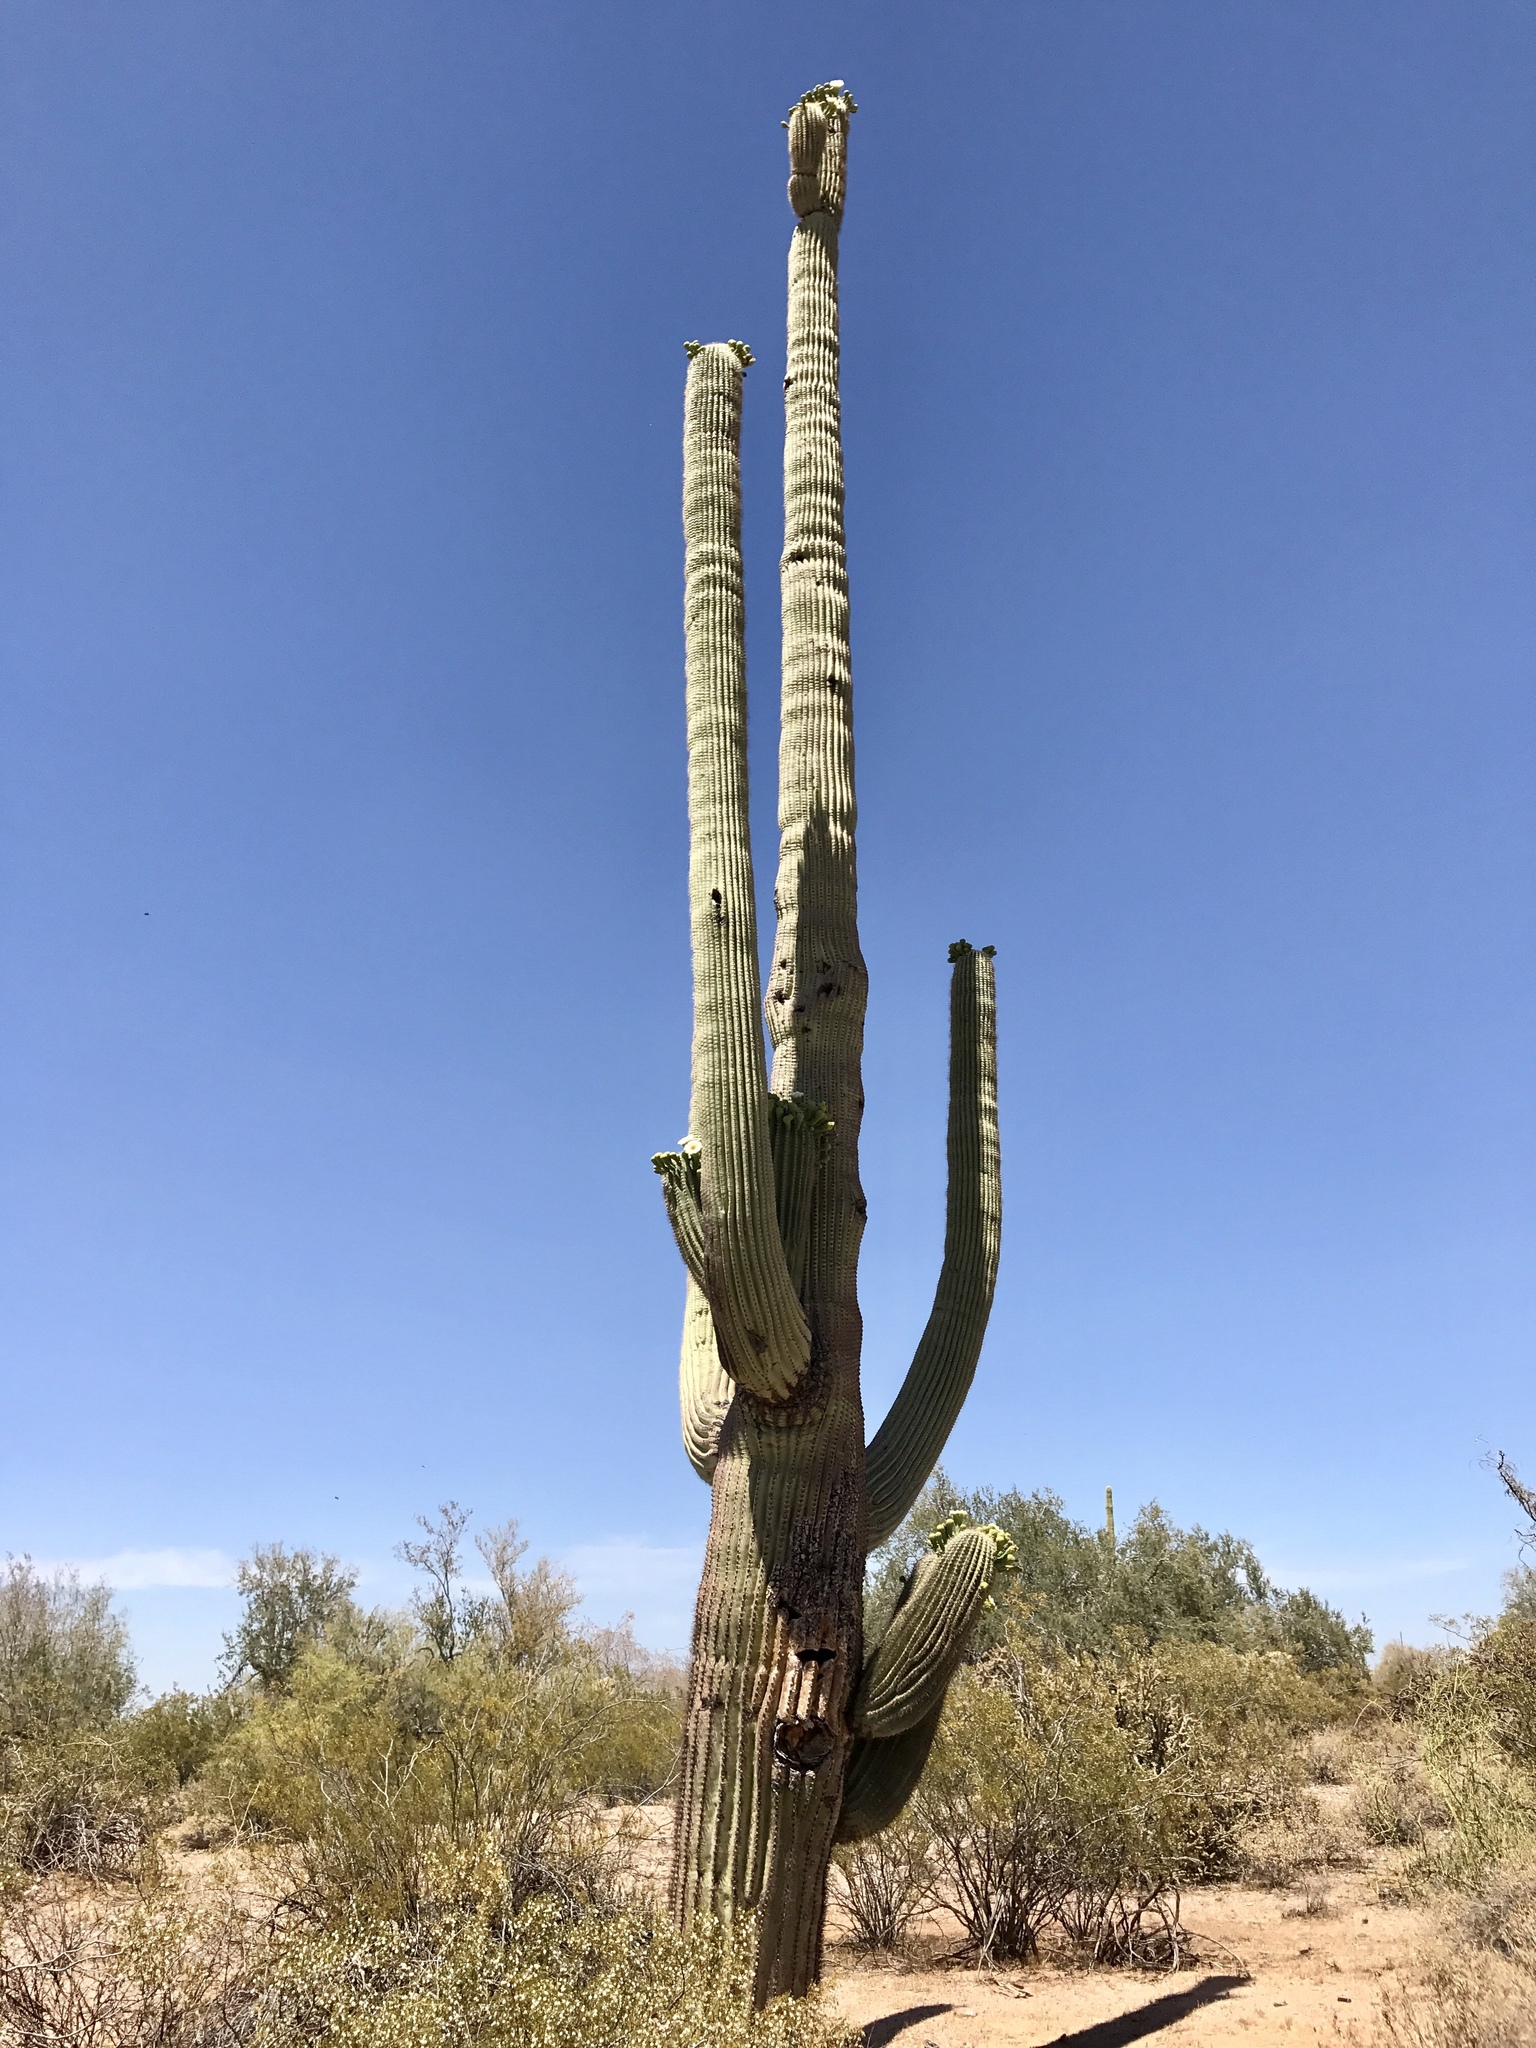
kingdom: Plantae
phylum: Tracheophyta
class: Magnoliopsida
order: Caryophyllales
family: Cactaceae
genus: Carnegiea
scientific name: Carnegiea gigantea
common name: Saguaro
